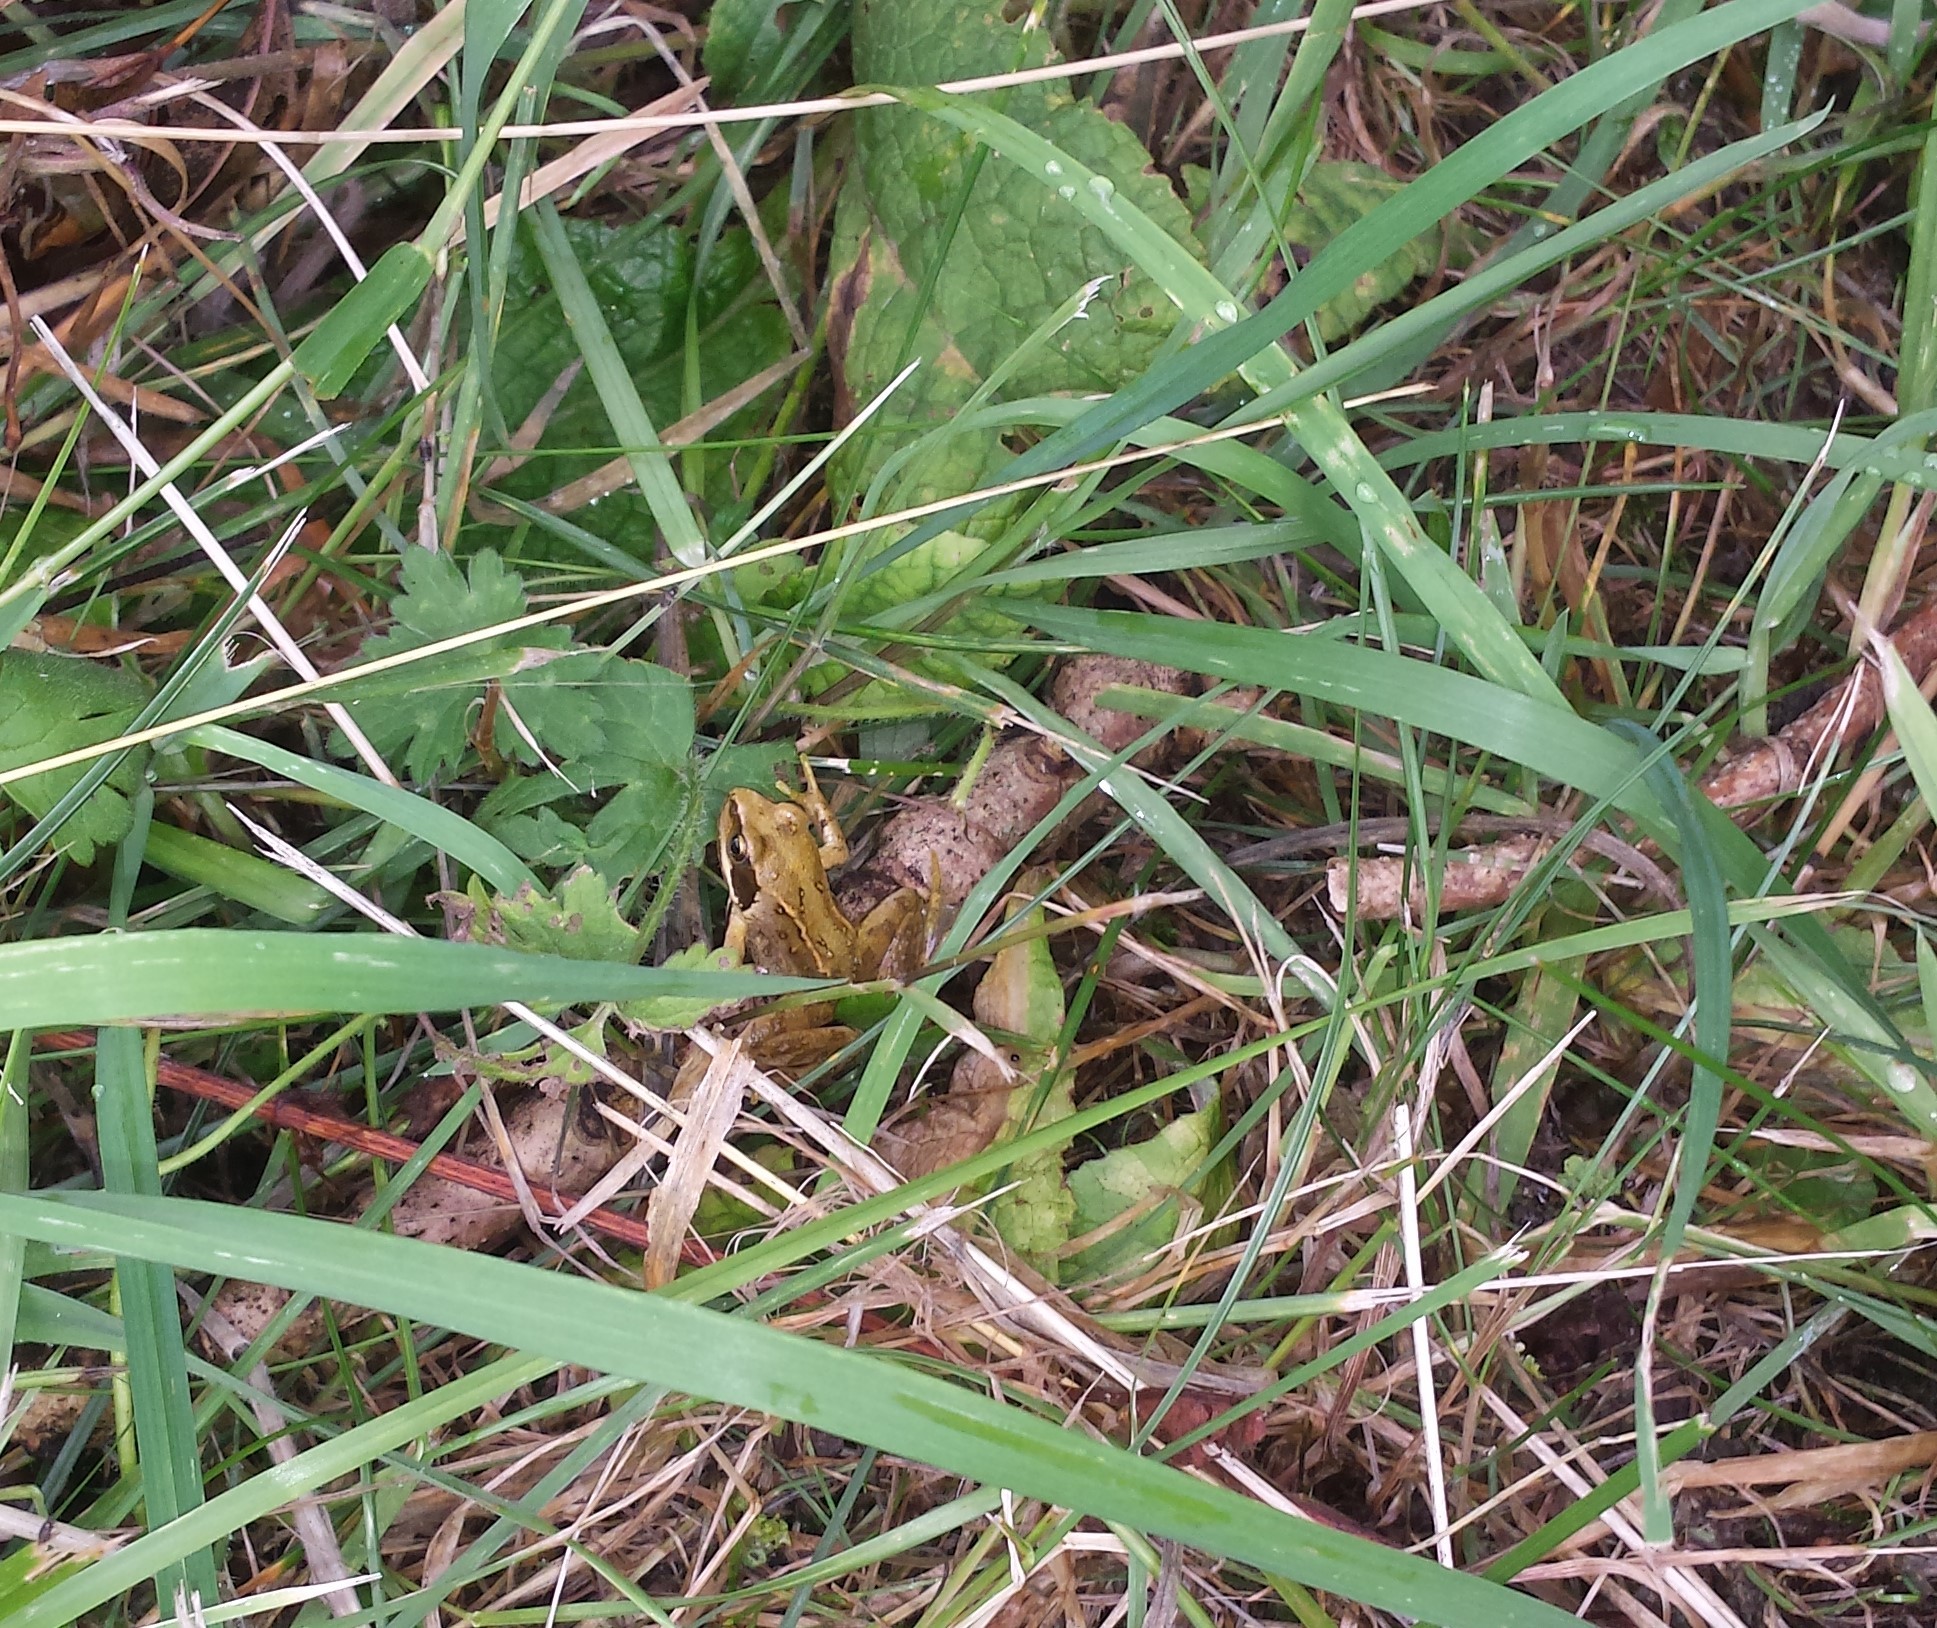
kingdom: Animalia
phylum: Chordata
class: Amphibia
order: Anura
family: Ranidae
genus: Rana
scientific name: Rana temporaria
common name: Common frog
